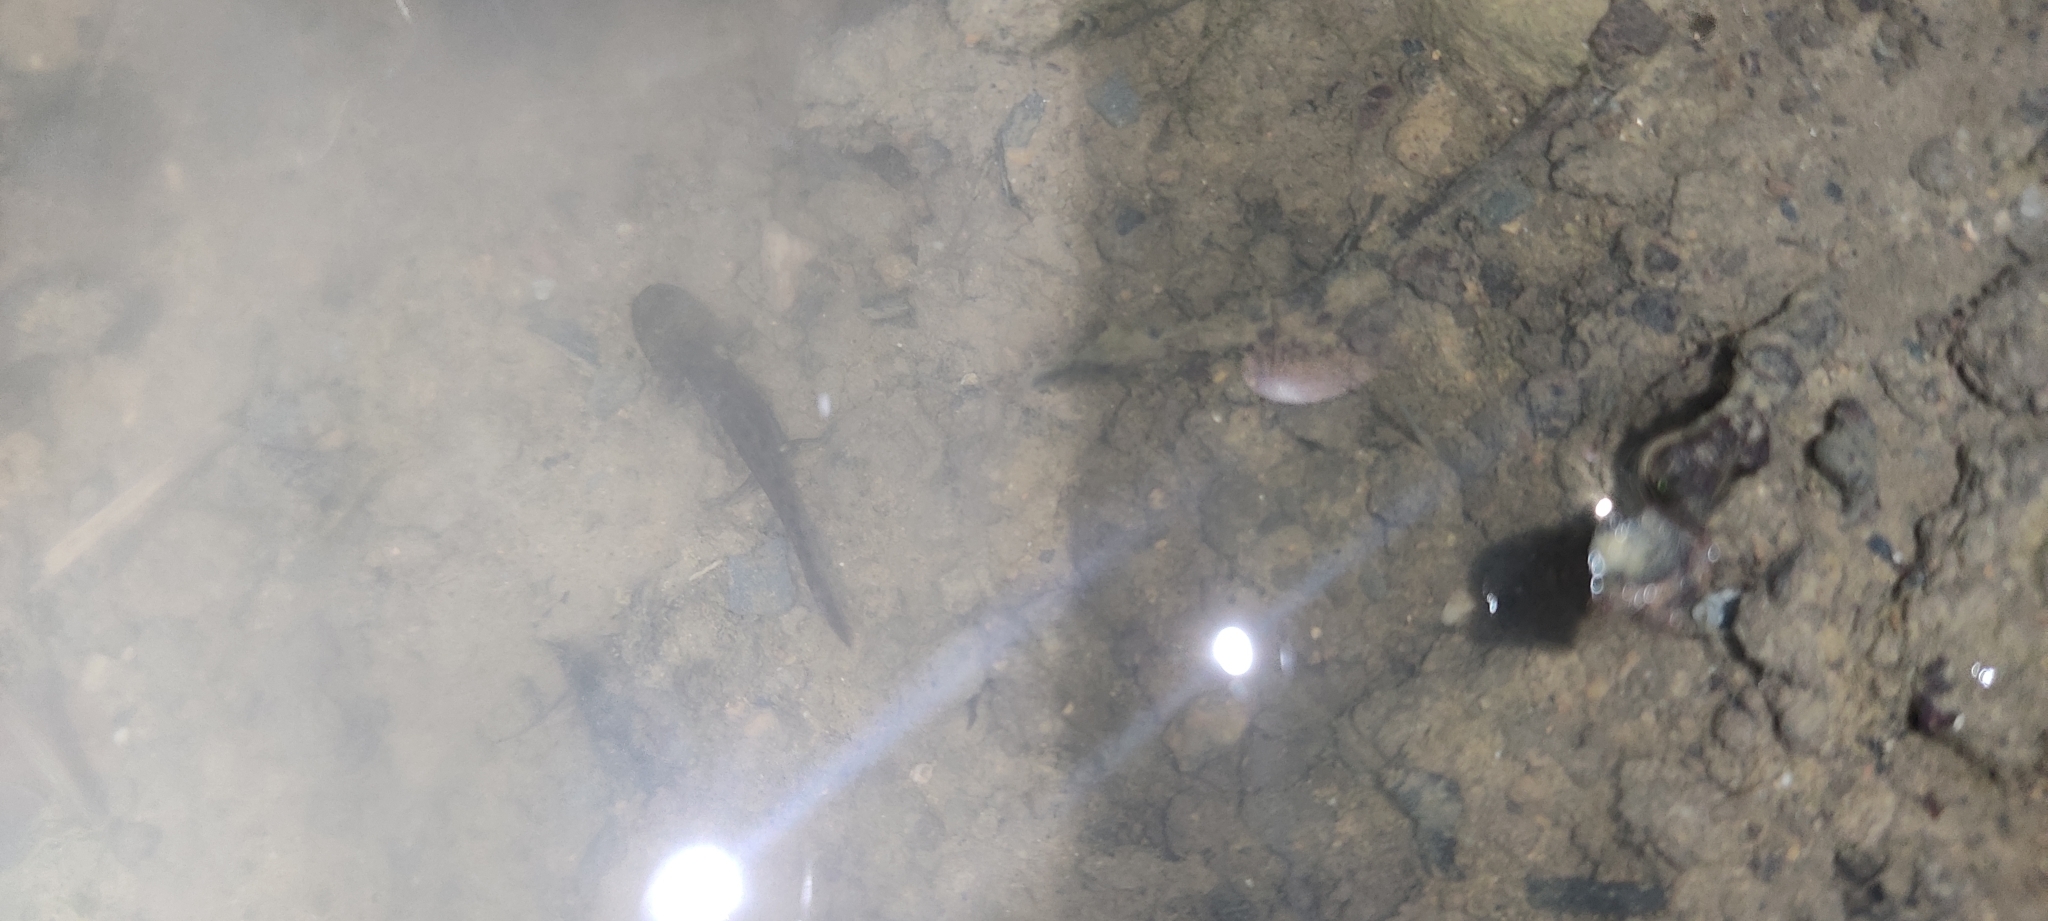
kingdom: Animalia
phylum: Chordata
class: Amphibia
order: Caudata
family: Salamandridae
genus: Salamandra
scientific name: Salamandra salamandra
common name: Fire salamander
